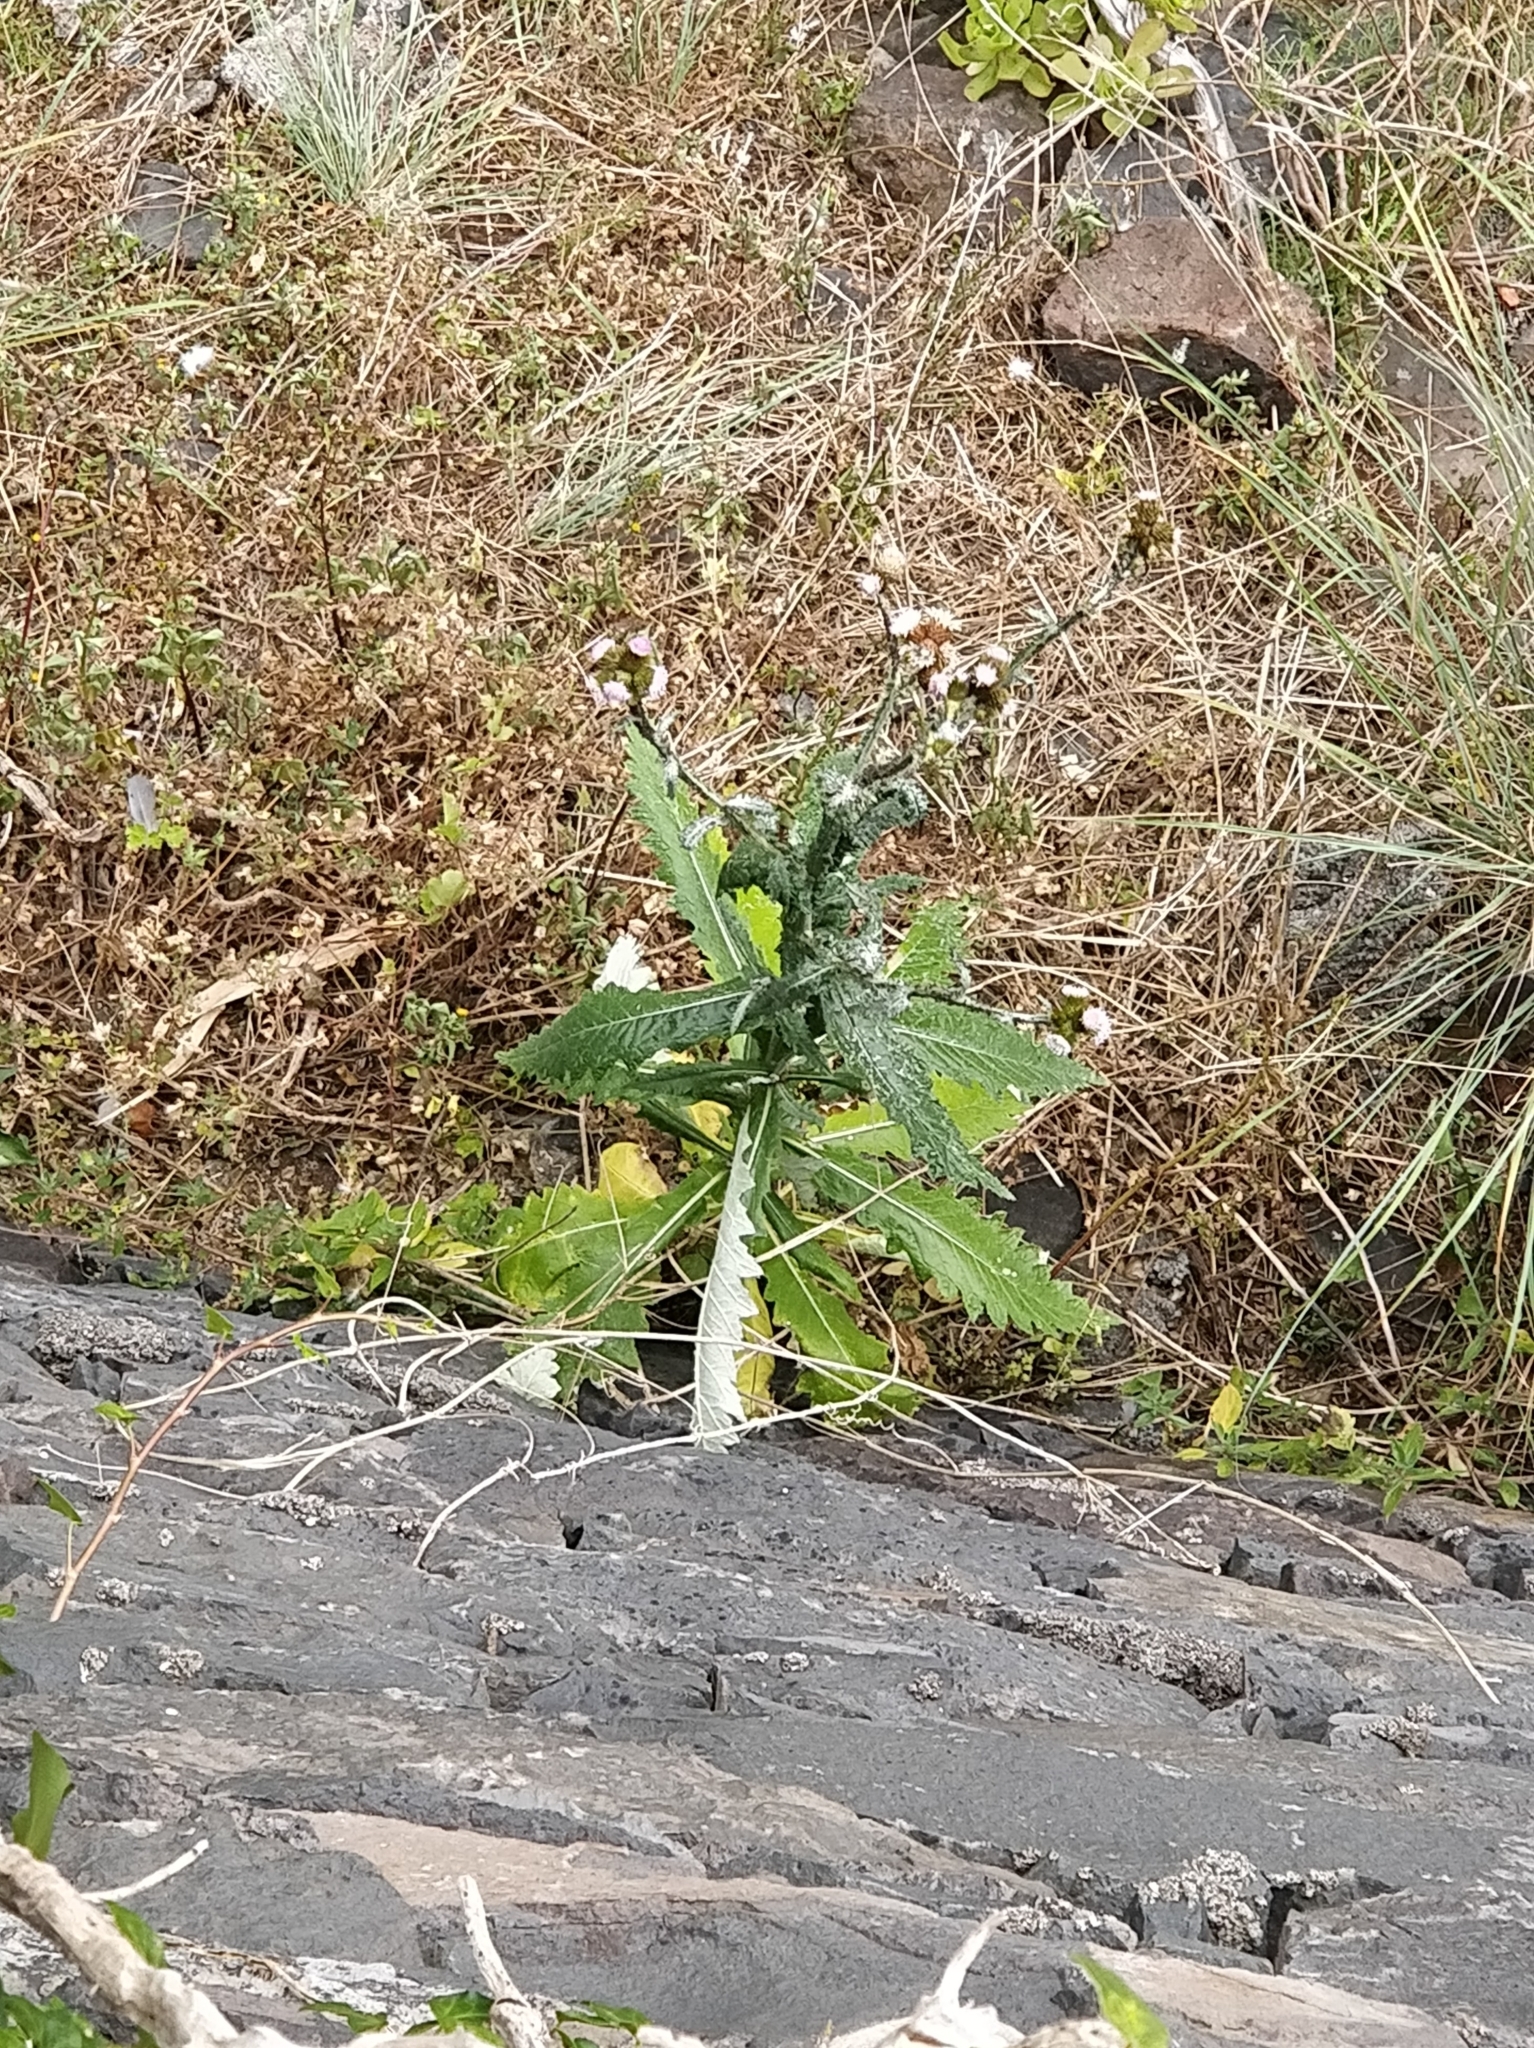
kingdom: Plantae
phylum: Tracheophyta
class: Magnoliopsida
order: Asterales
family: Asteraceae
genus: Carduus
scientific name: Carduus squarrosus
